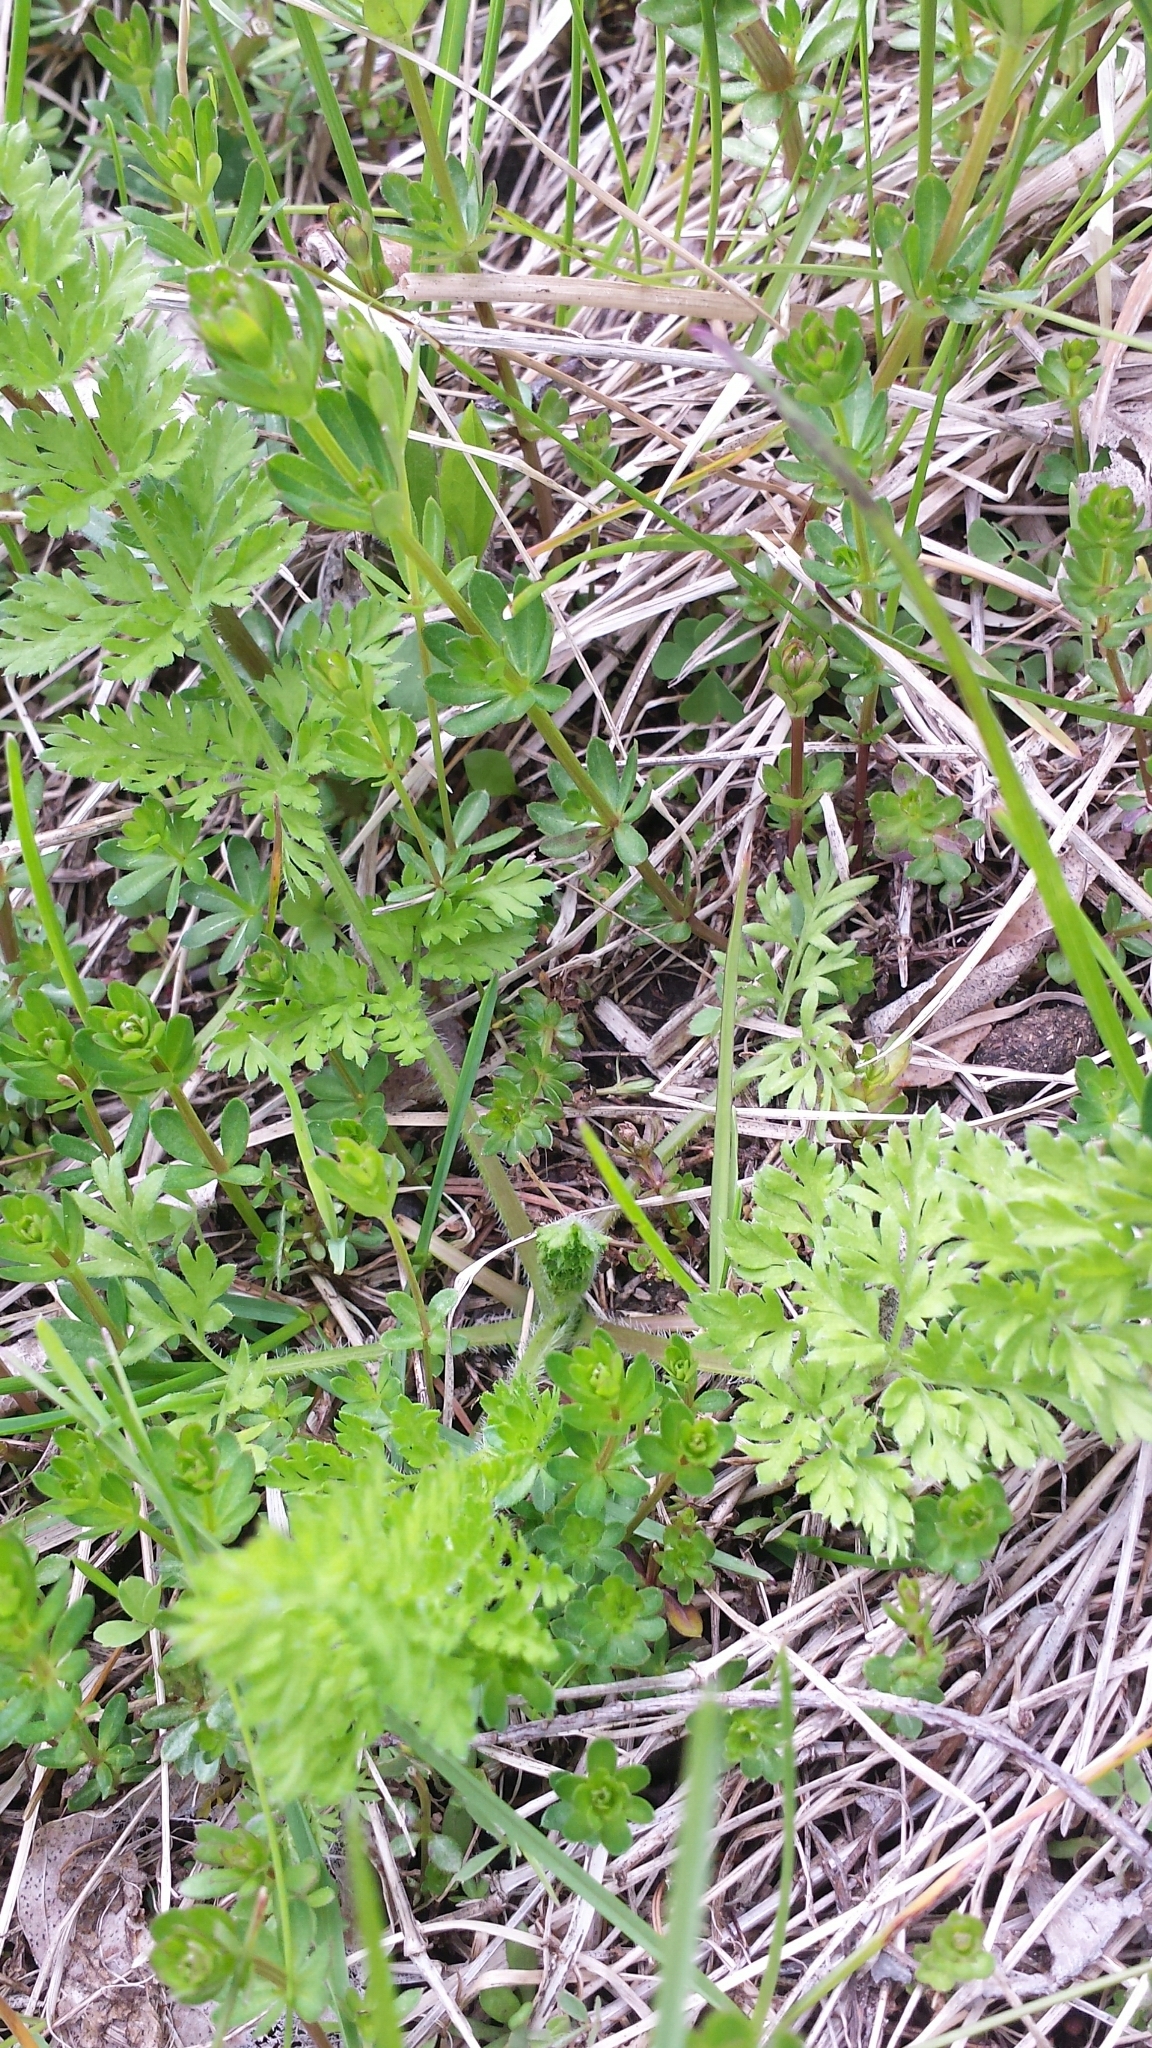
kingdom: Plantae
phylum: Tracheophyta
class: Magnoliopsida
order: Apiales
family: Apiaceae
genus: Daucus
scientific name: Daucus carota
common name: Wild carrot
